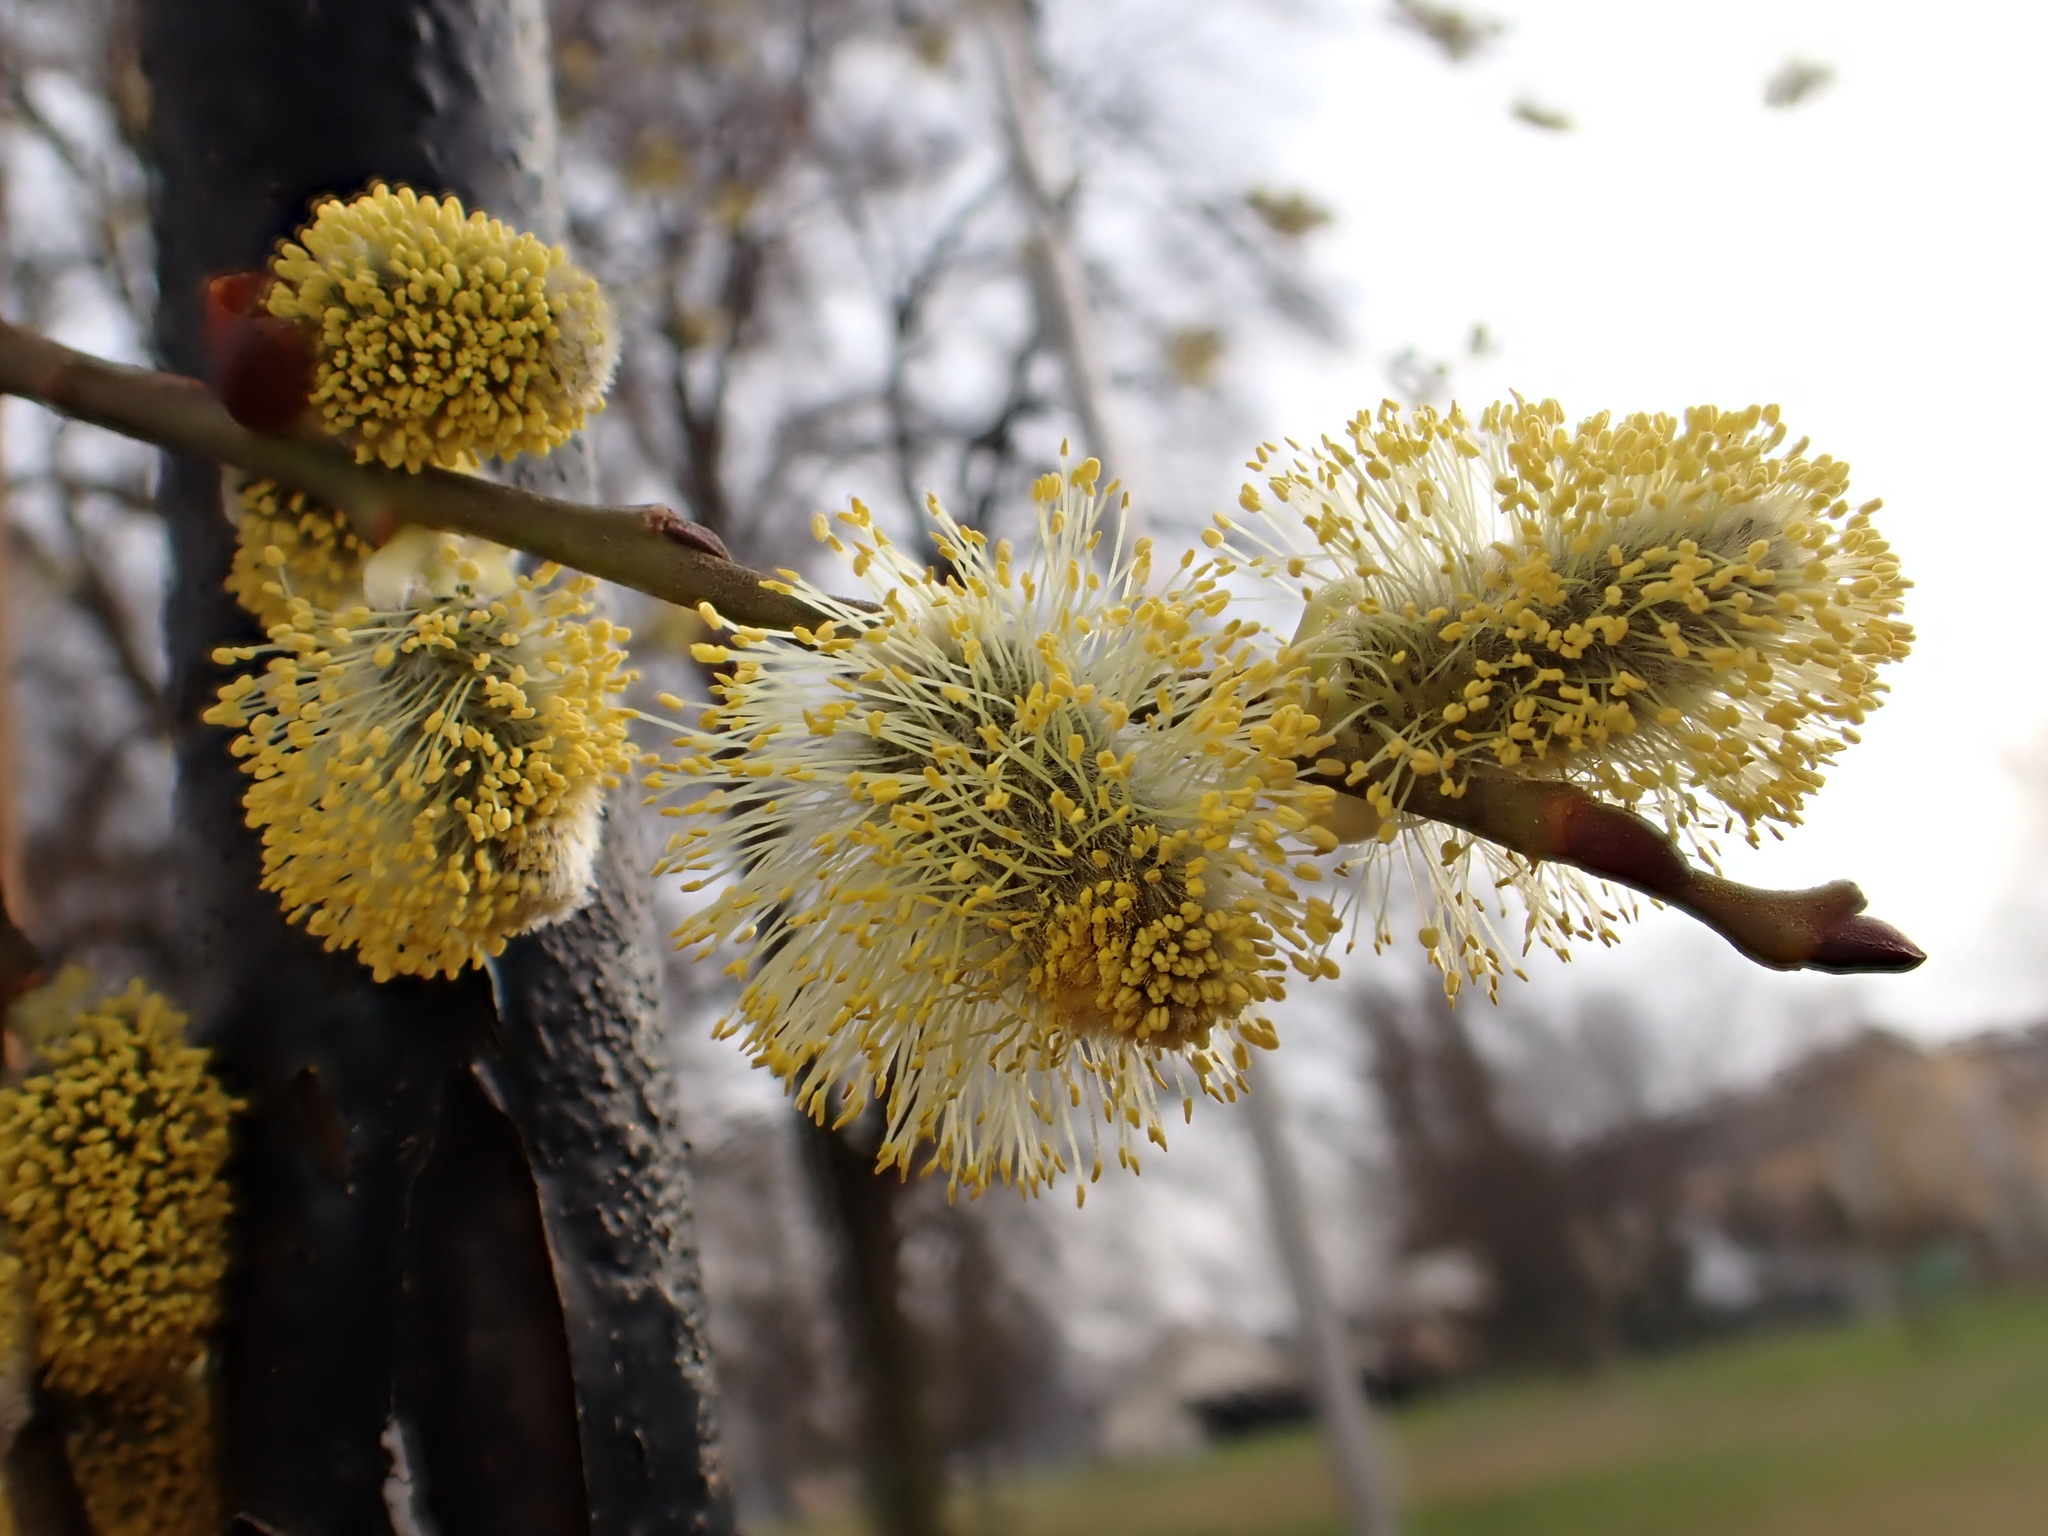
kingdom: Plantae
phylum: Tracheophyta
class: Magnoliopsida
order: Malpighiales
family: Salicaceae
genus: Salix
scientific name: Salix caprea
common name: Goat willow
